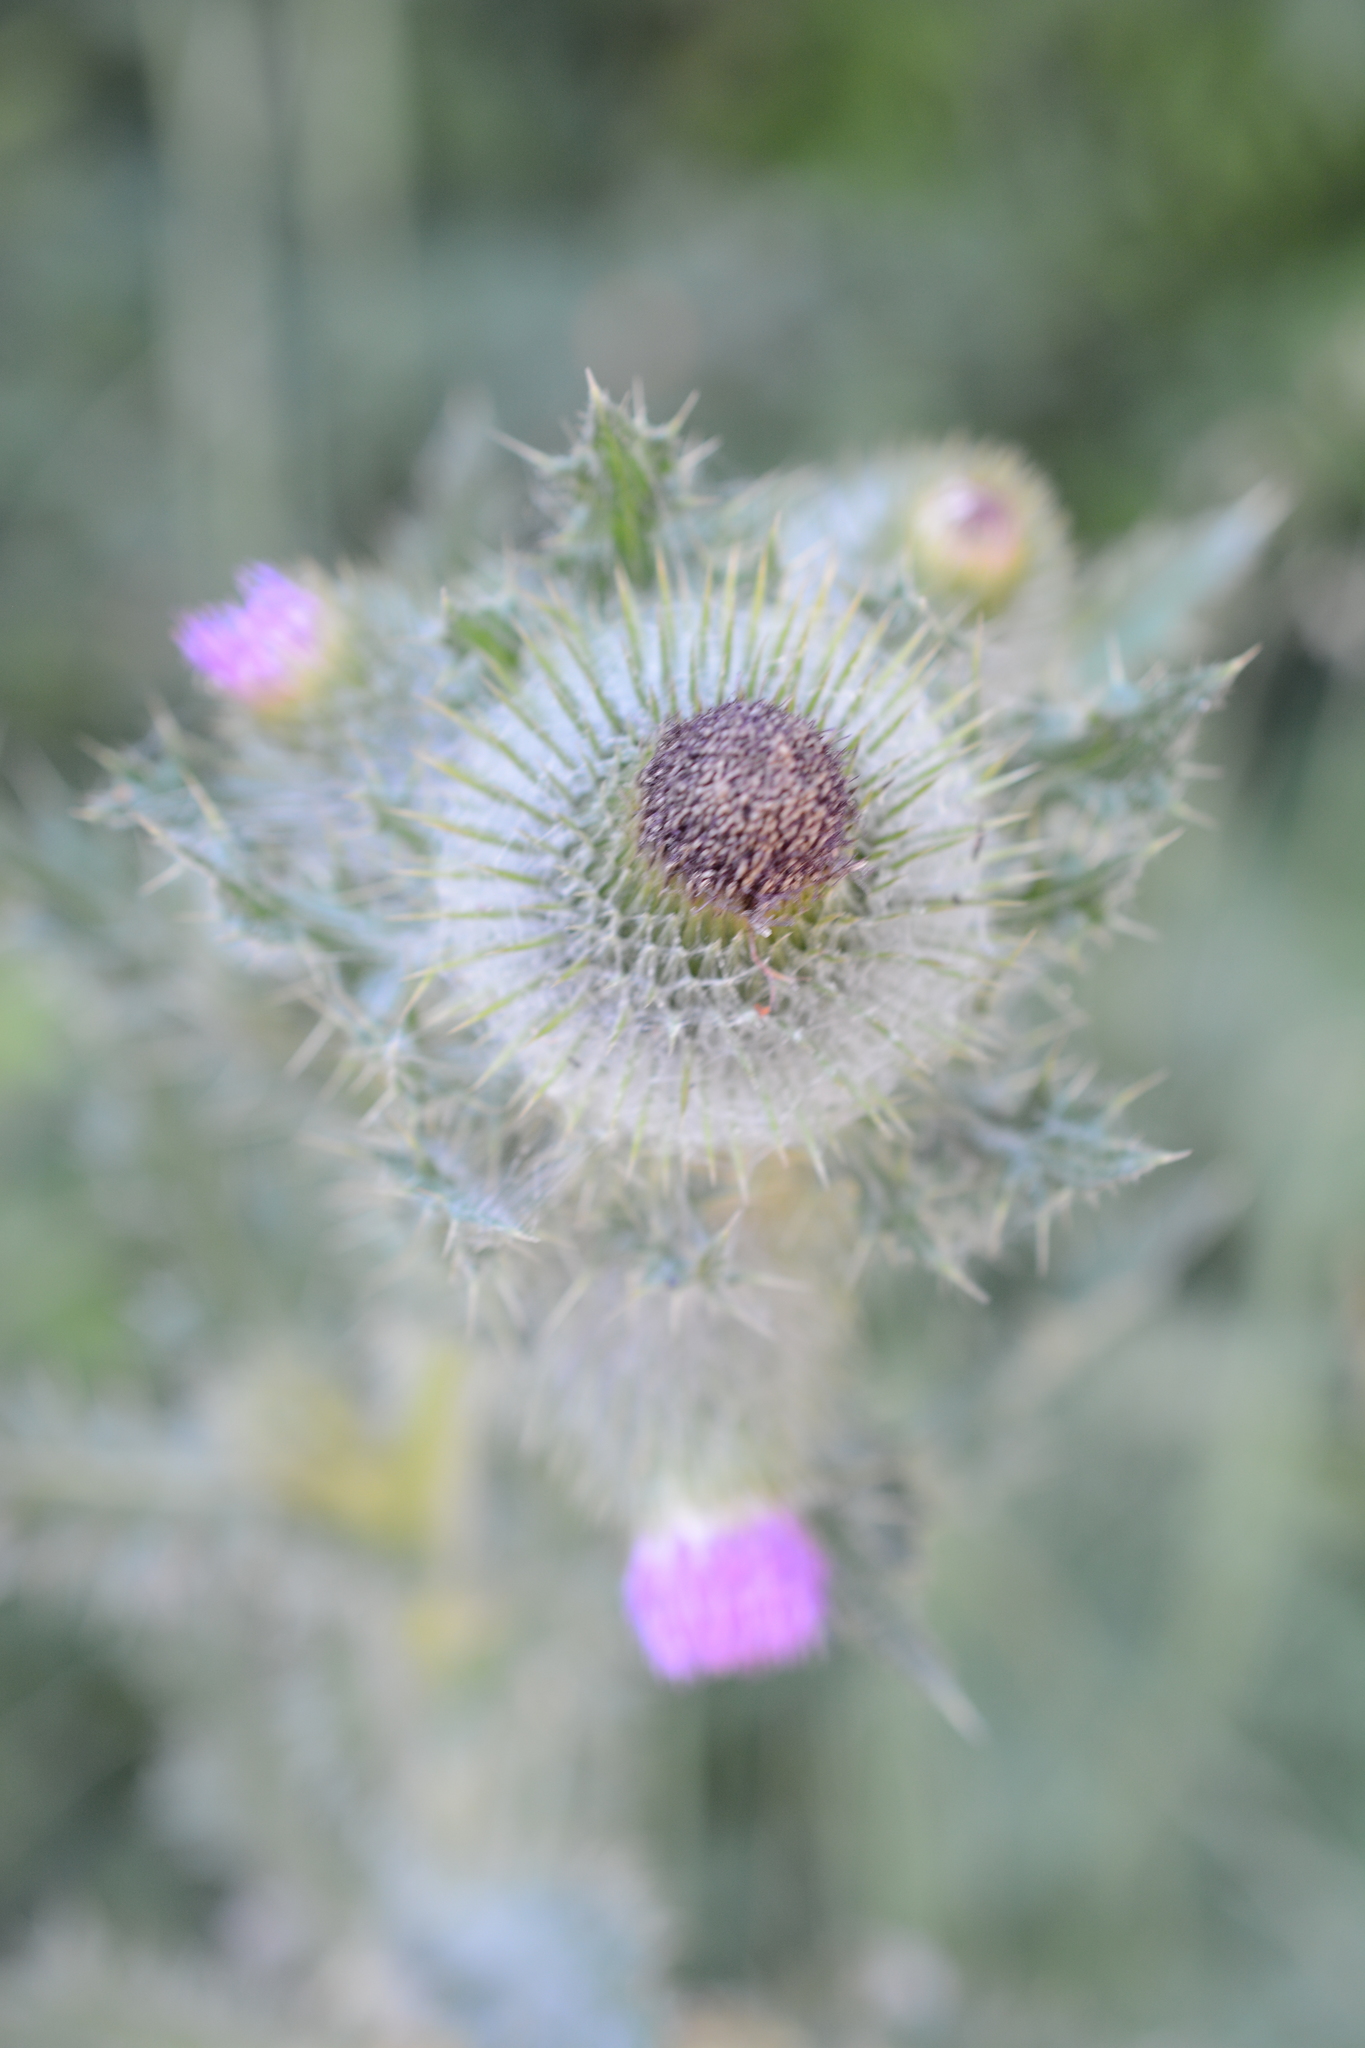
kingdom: Plantae
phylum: Tracheophyta
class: Magnoliopsida
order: Asterales
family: Asteraceae
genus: Cirsium
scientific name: Cirsium brevistylum
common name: Indian thistle
